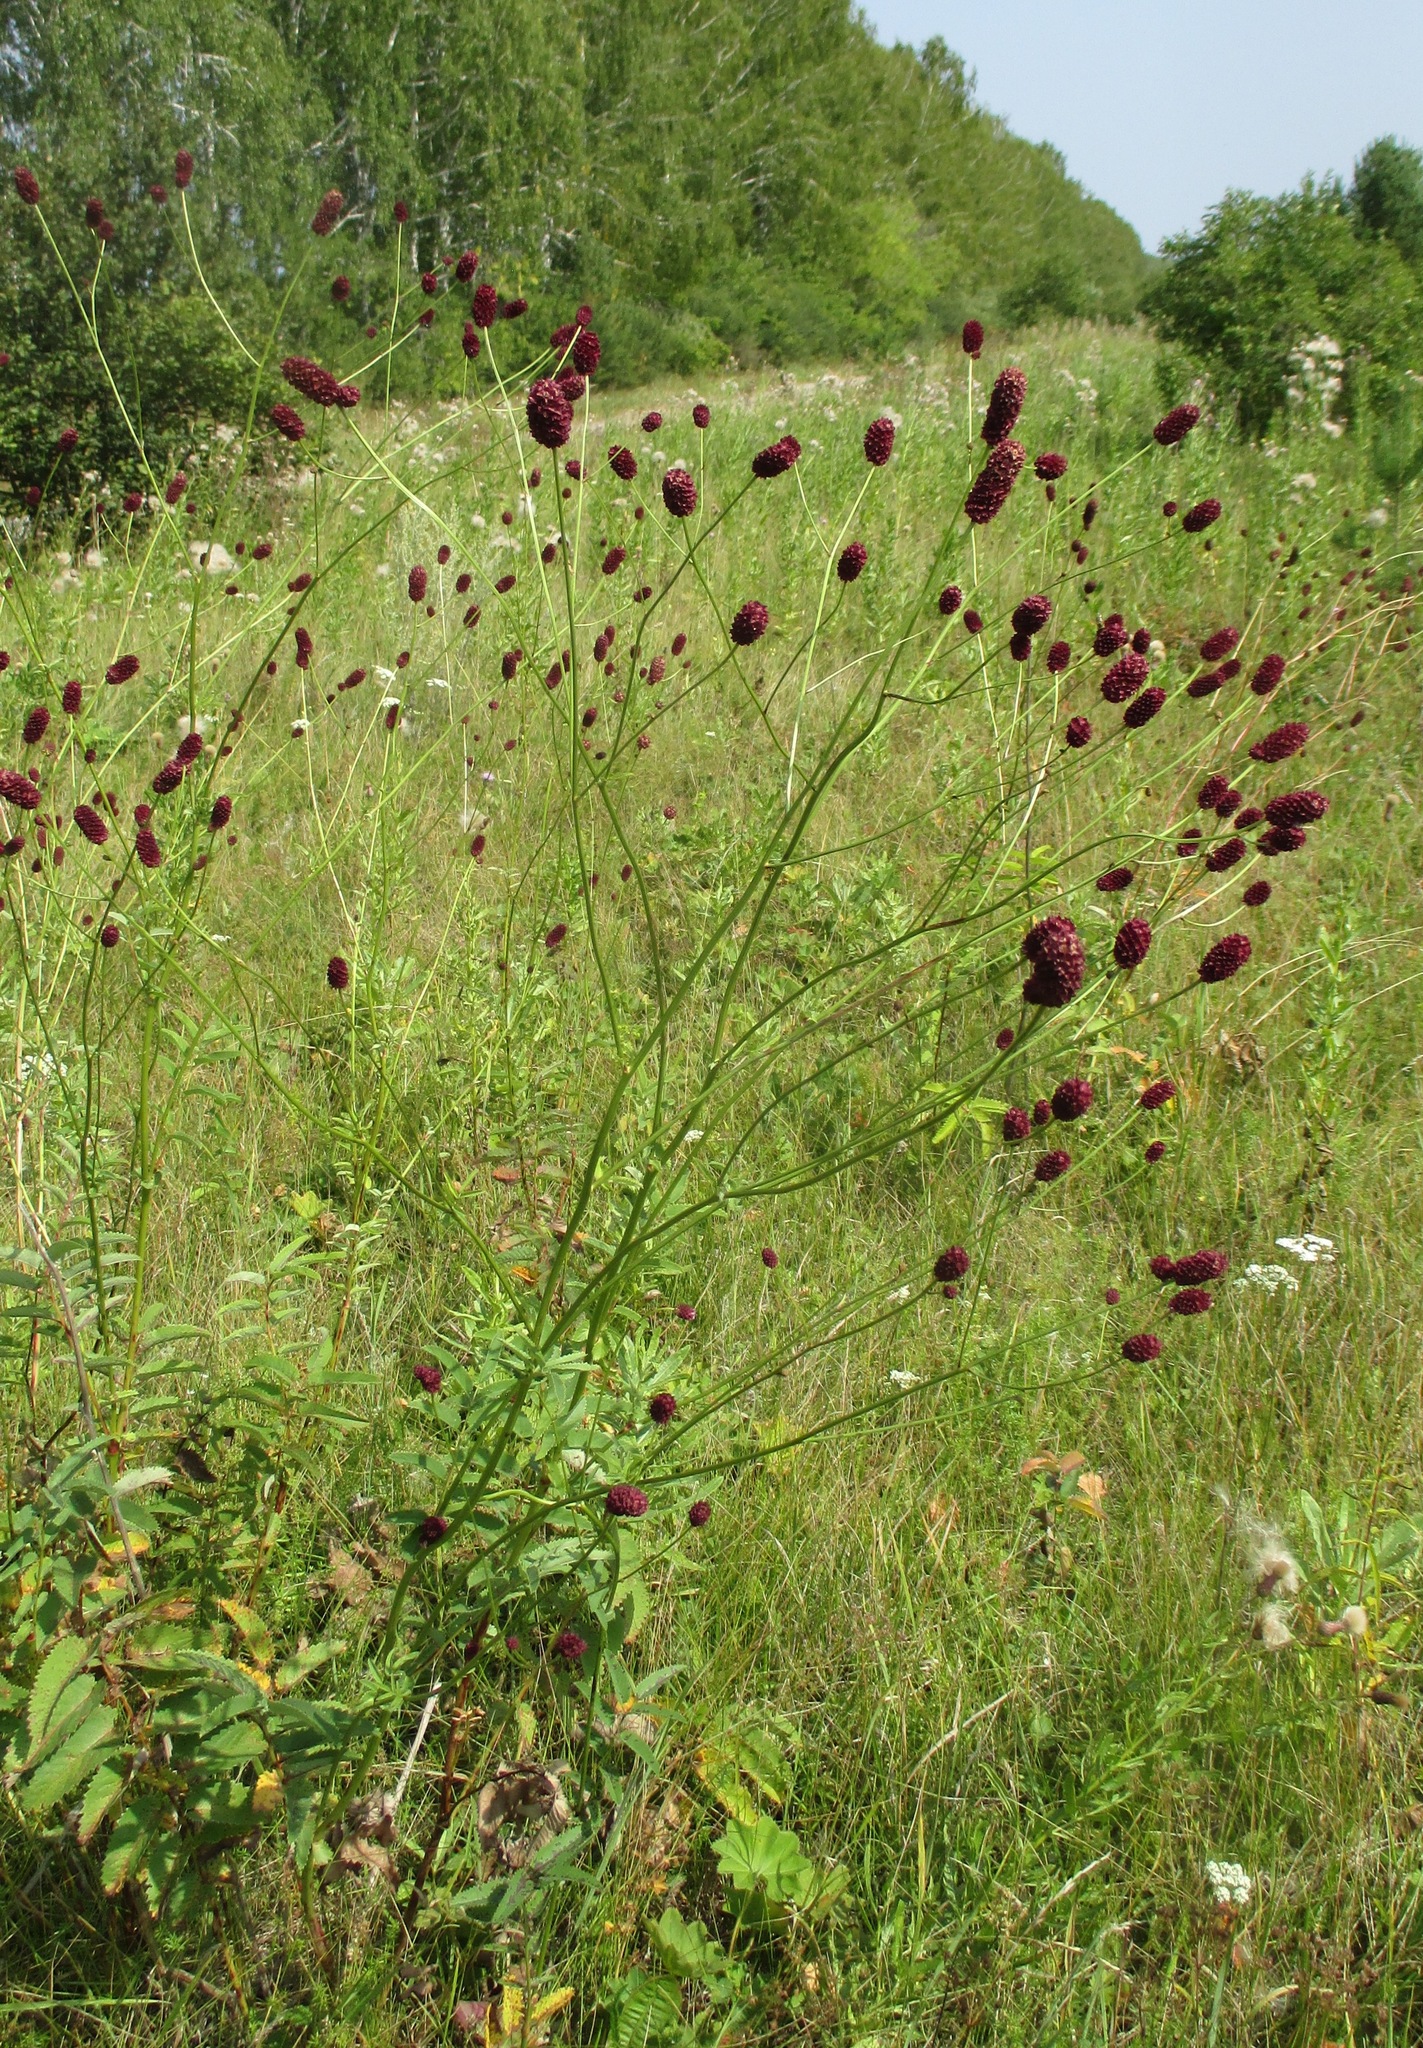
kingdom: Plantae
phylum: Tracheophyta
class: Magnoliopsida
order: Rosales
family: Rosaceae
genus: Sanguisorba
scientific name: Sanguisorba officinalis
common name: Great burnet
